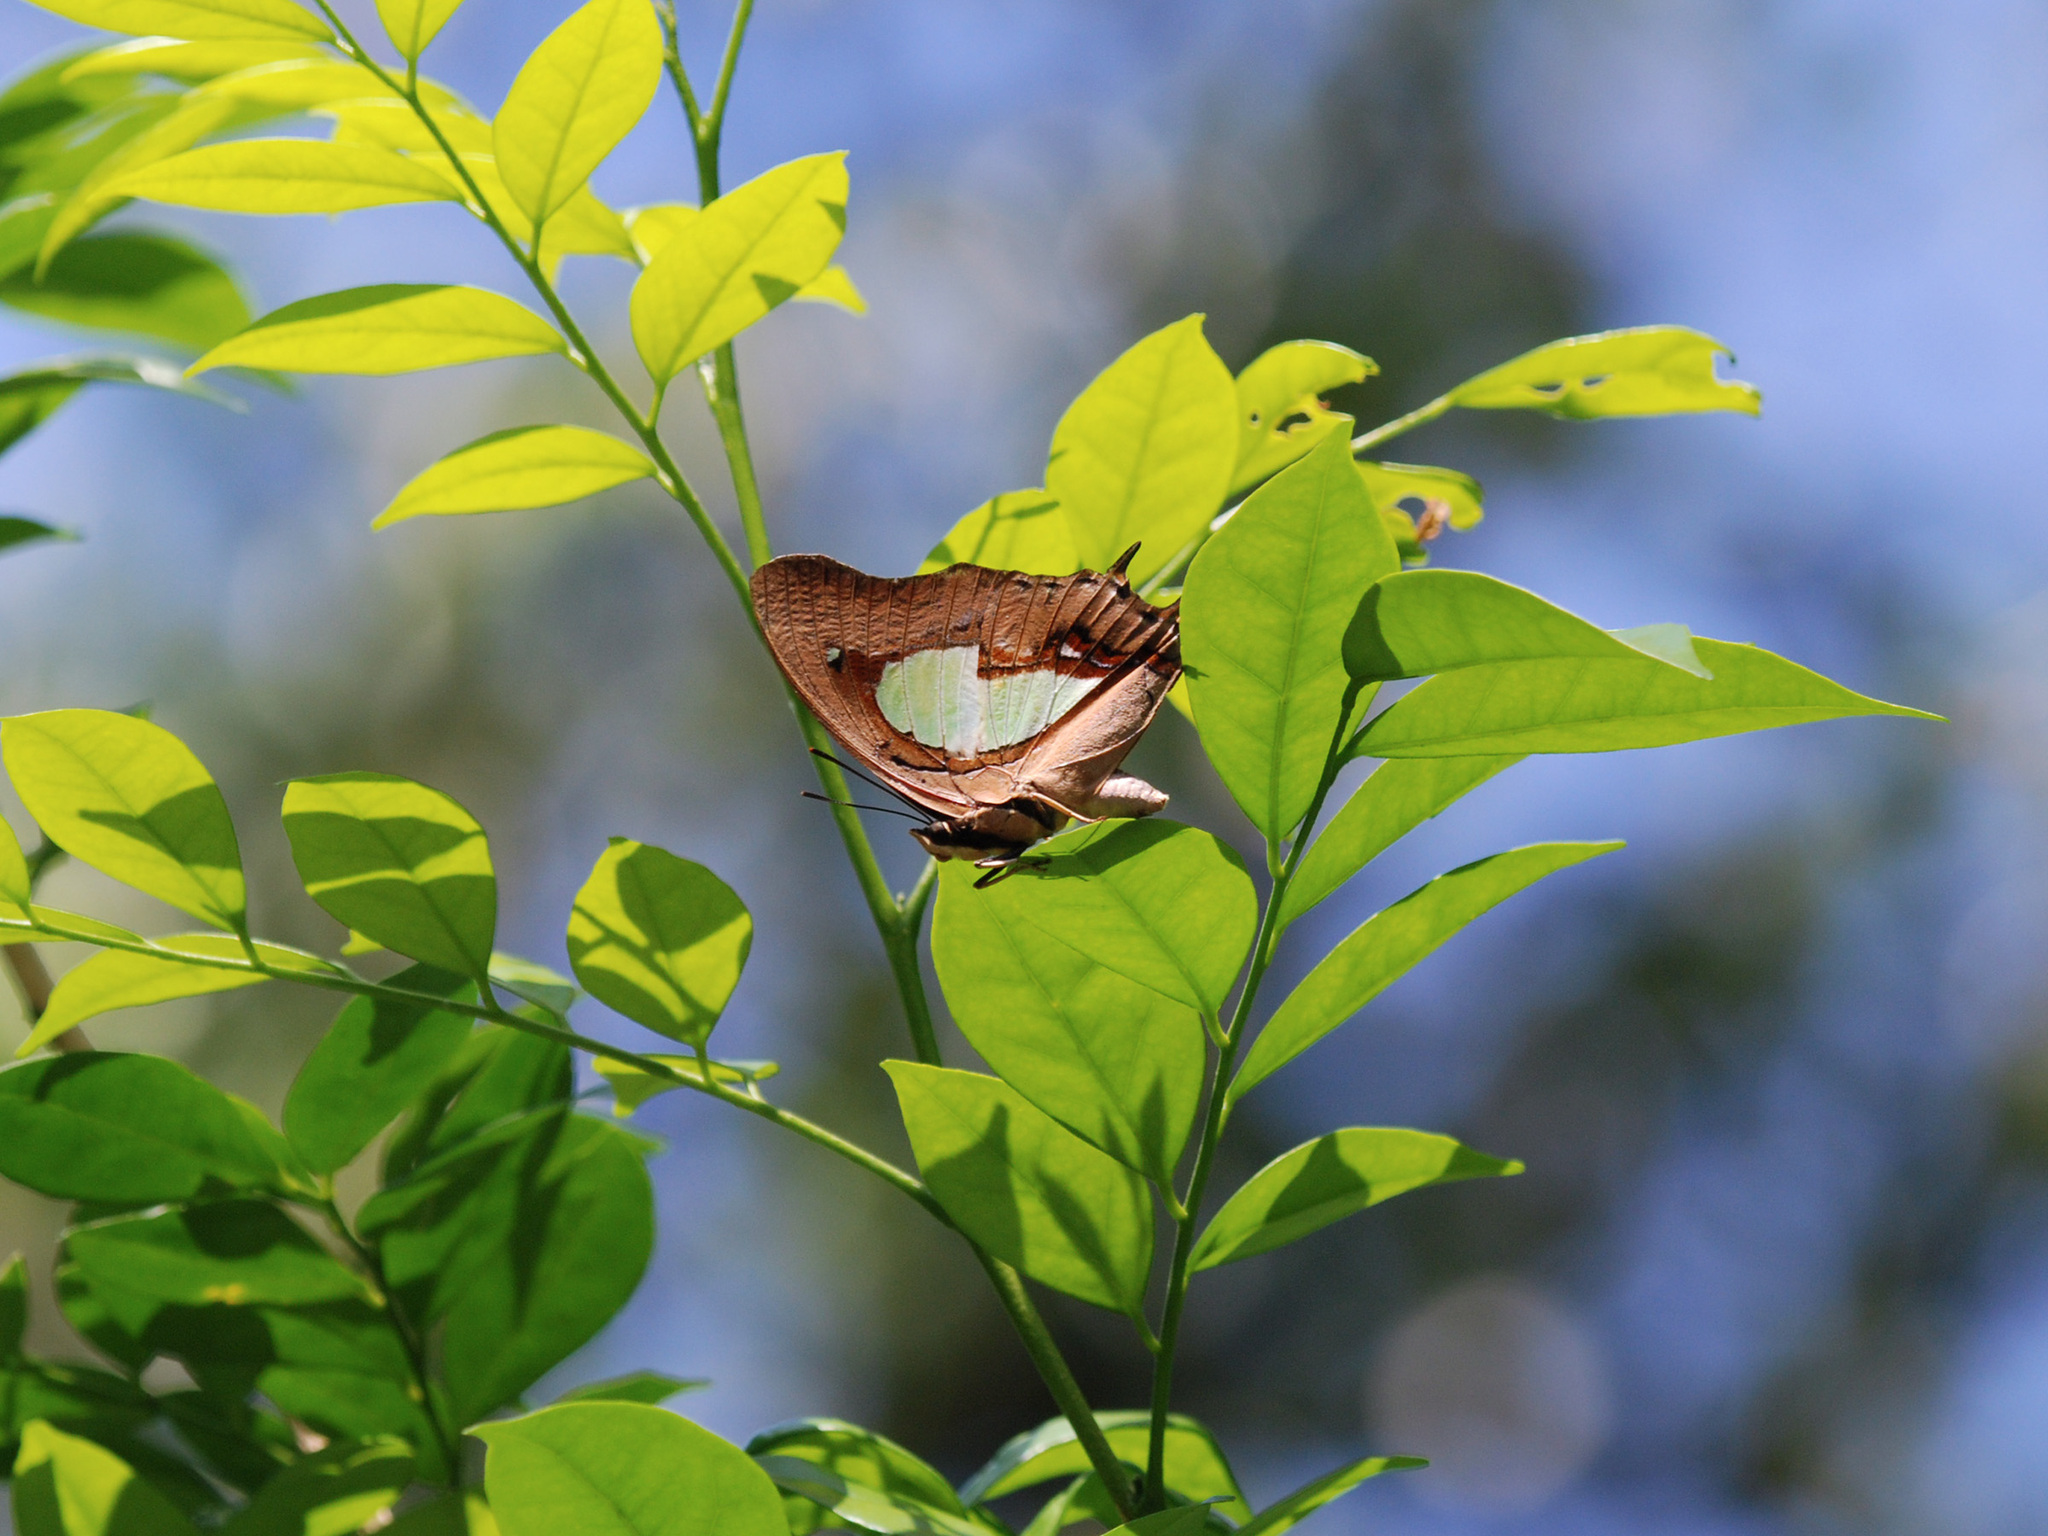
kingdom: Animalia
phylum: Arthropoda
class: Insecta
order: Lepidoptera
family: Nymphalidae
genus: Polyura
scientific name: Polyura hebe
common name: Plain nawab
